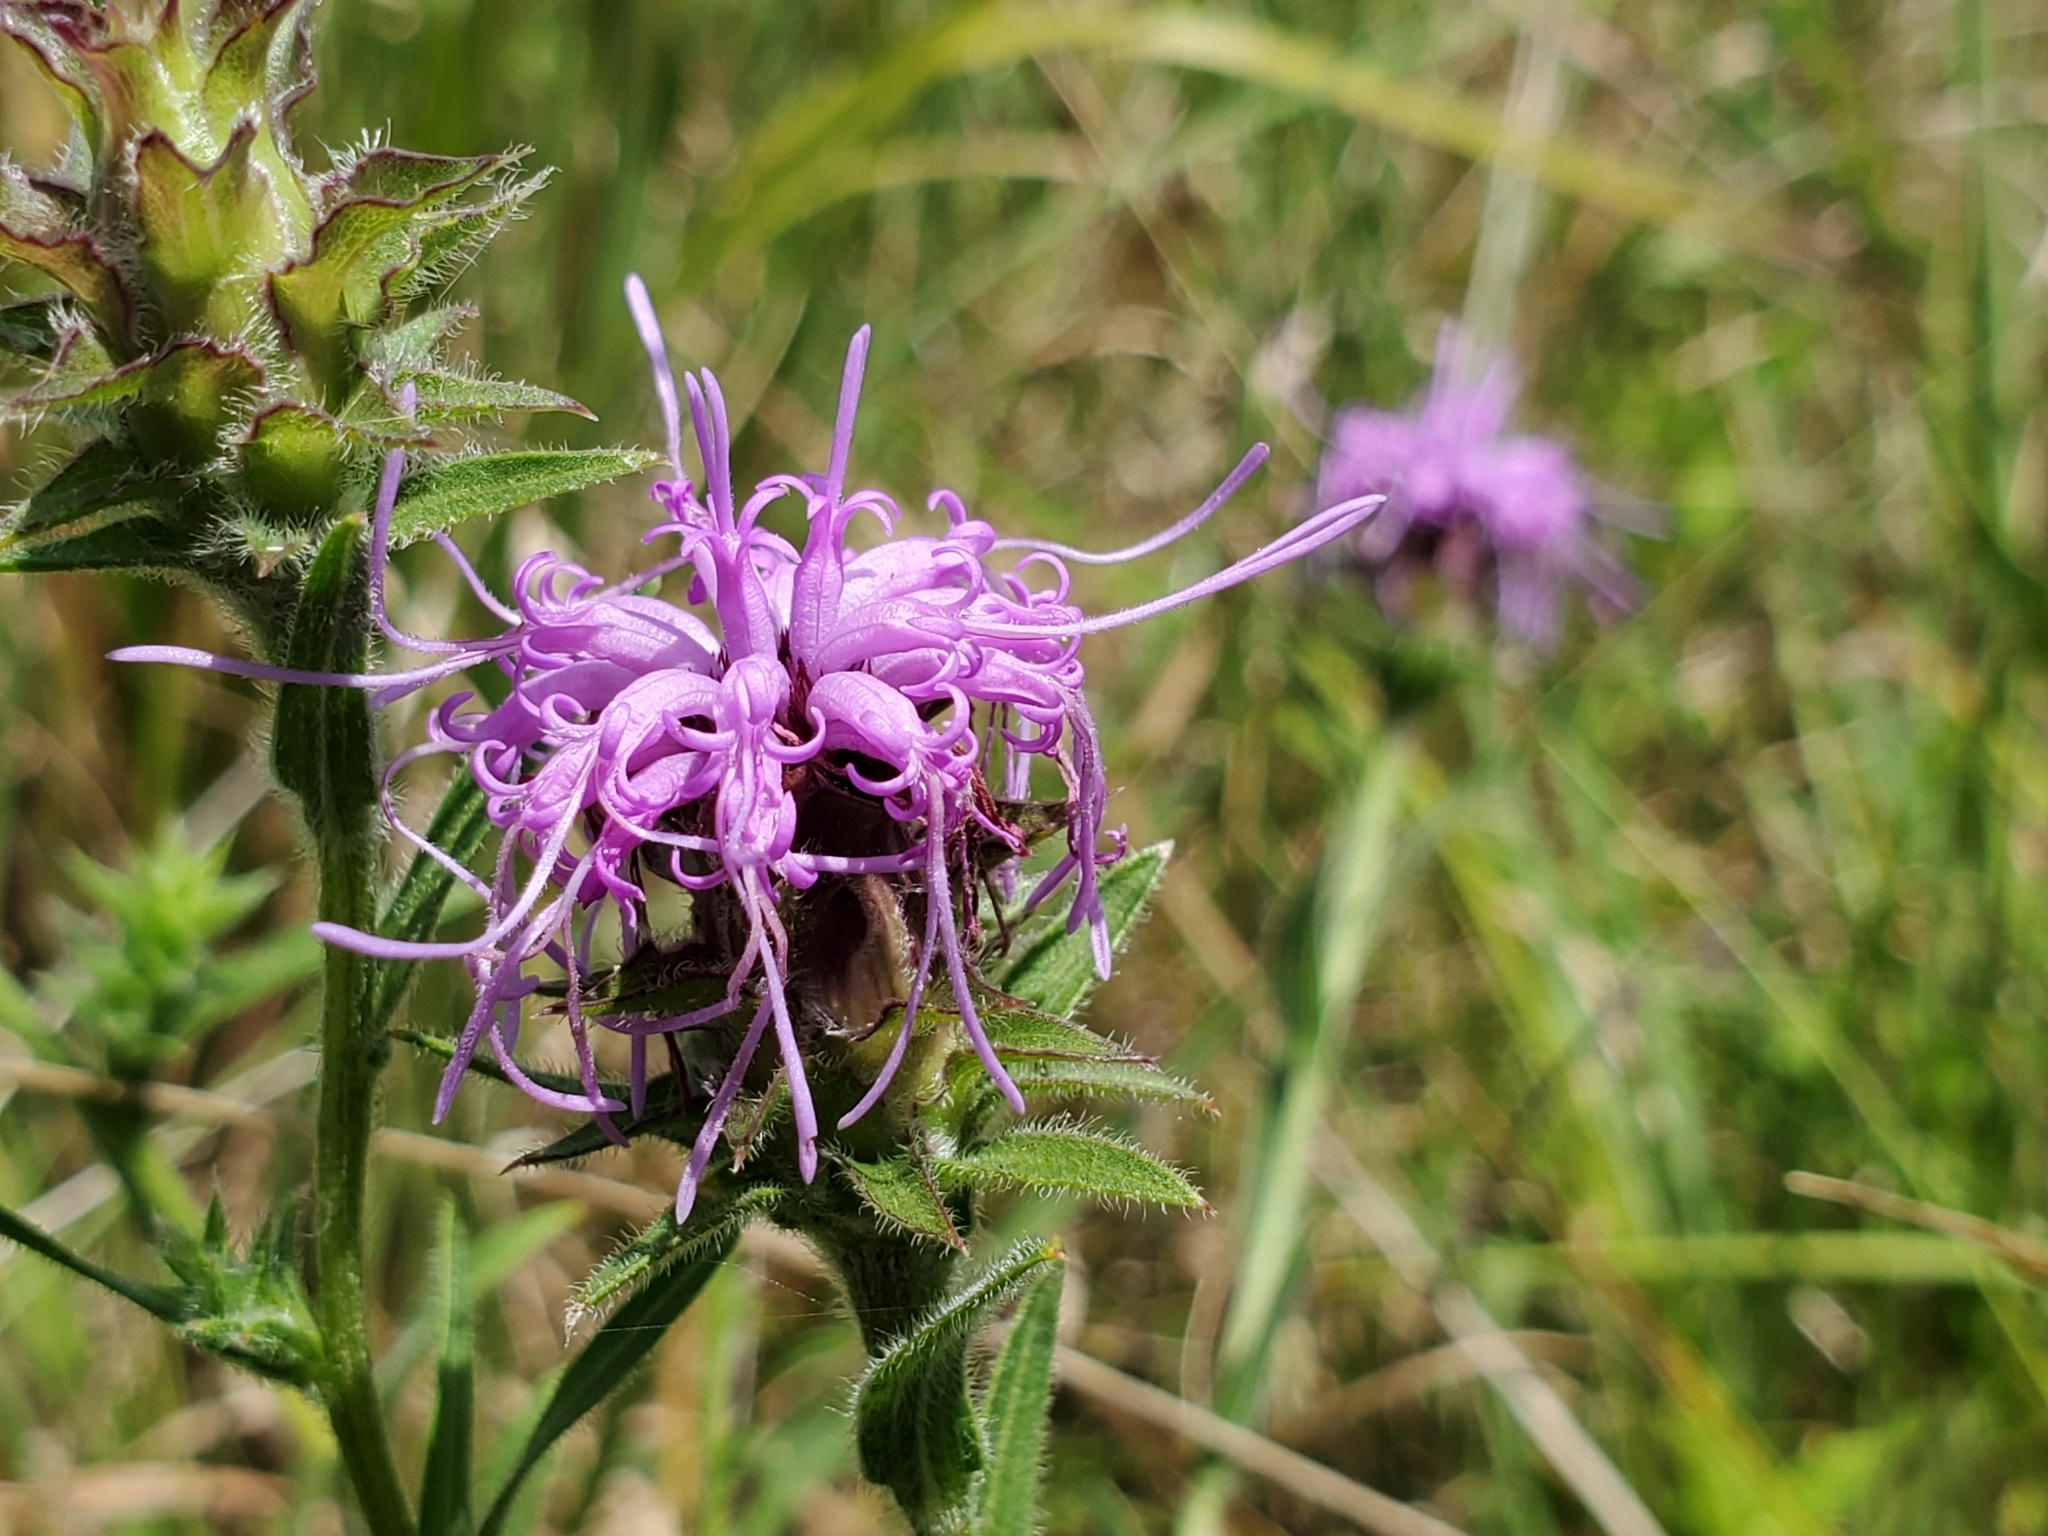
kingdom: Plantae
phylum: Tracheophyta
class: Magnoliopsida
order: Asterales
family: Asteraceae
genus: Liatris
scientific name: Liatris squarrosa
